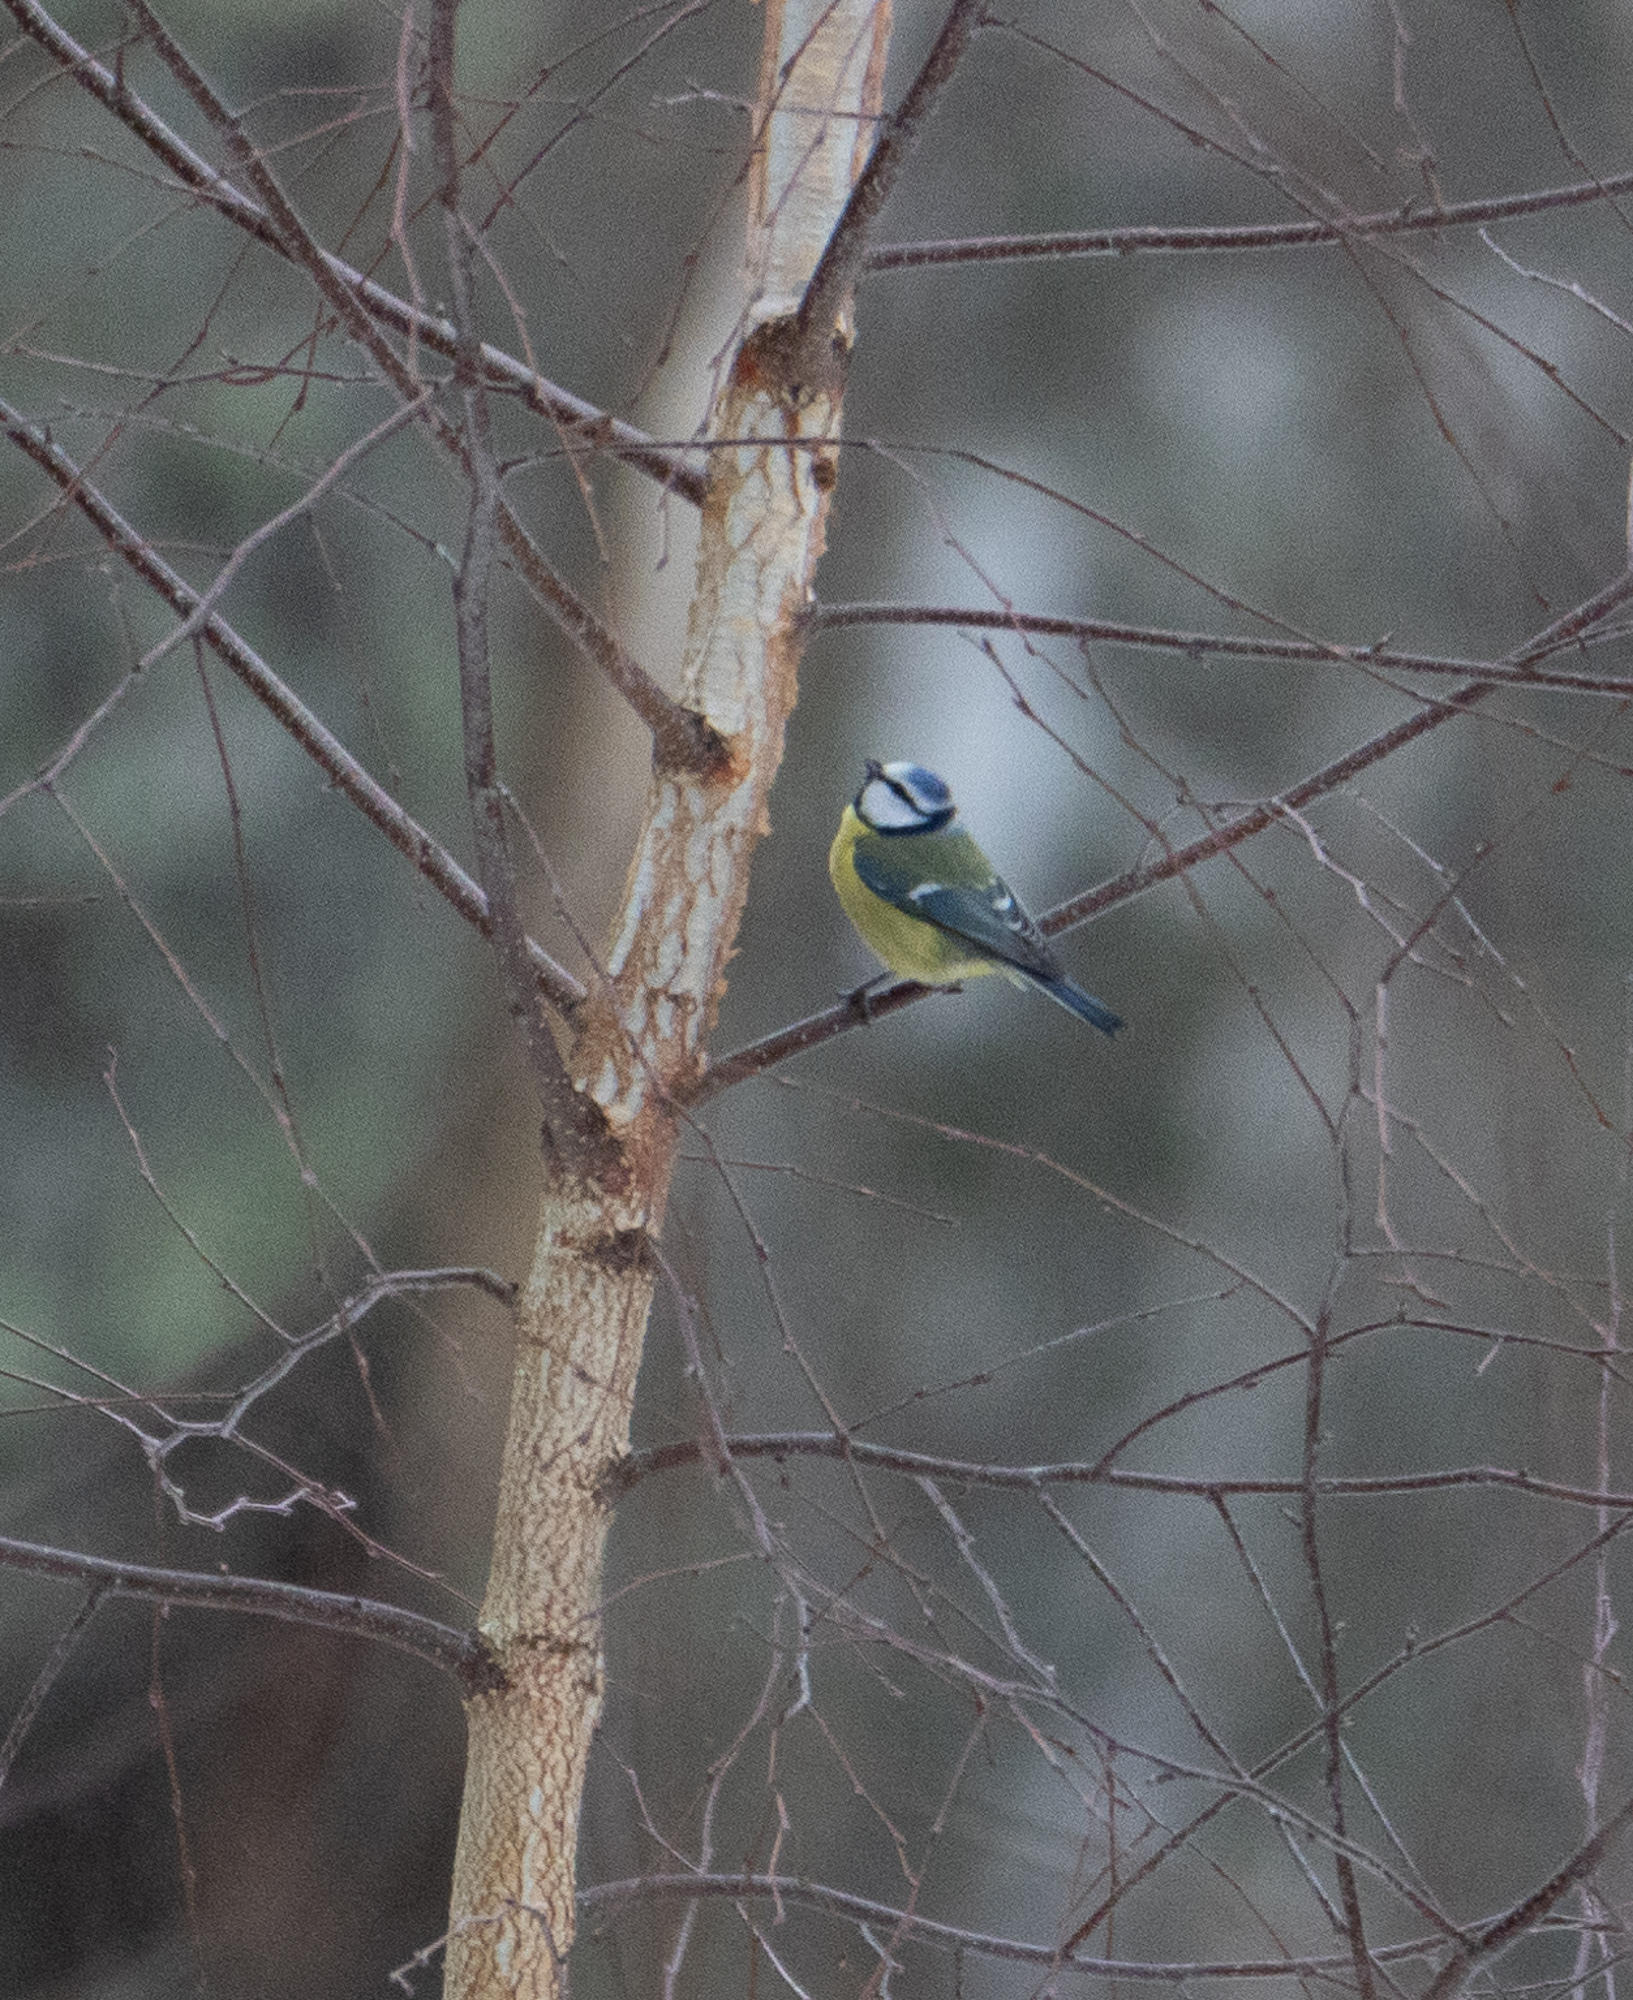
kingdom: Animalia
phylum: Chordata
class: Aves
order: Passeriformes
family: Paridae
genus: Cyanistes
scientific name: Cyanistes caeruleus
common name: Eurasian blue tit
